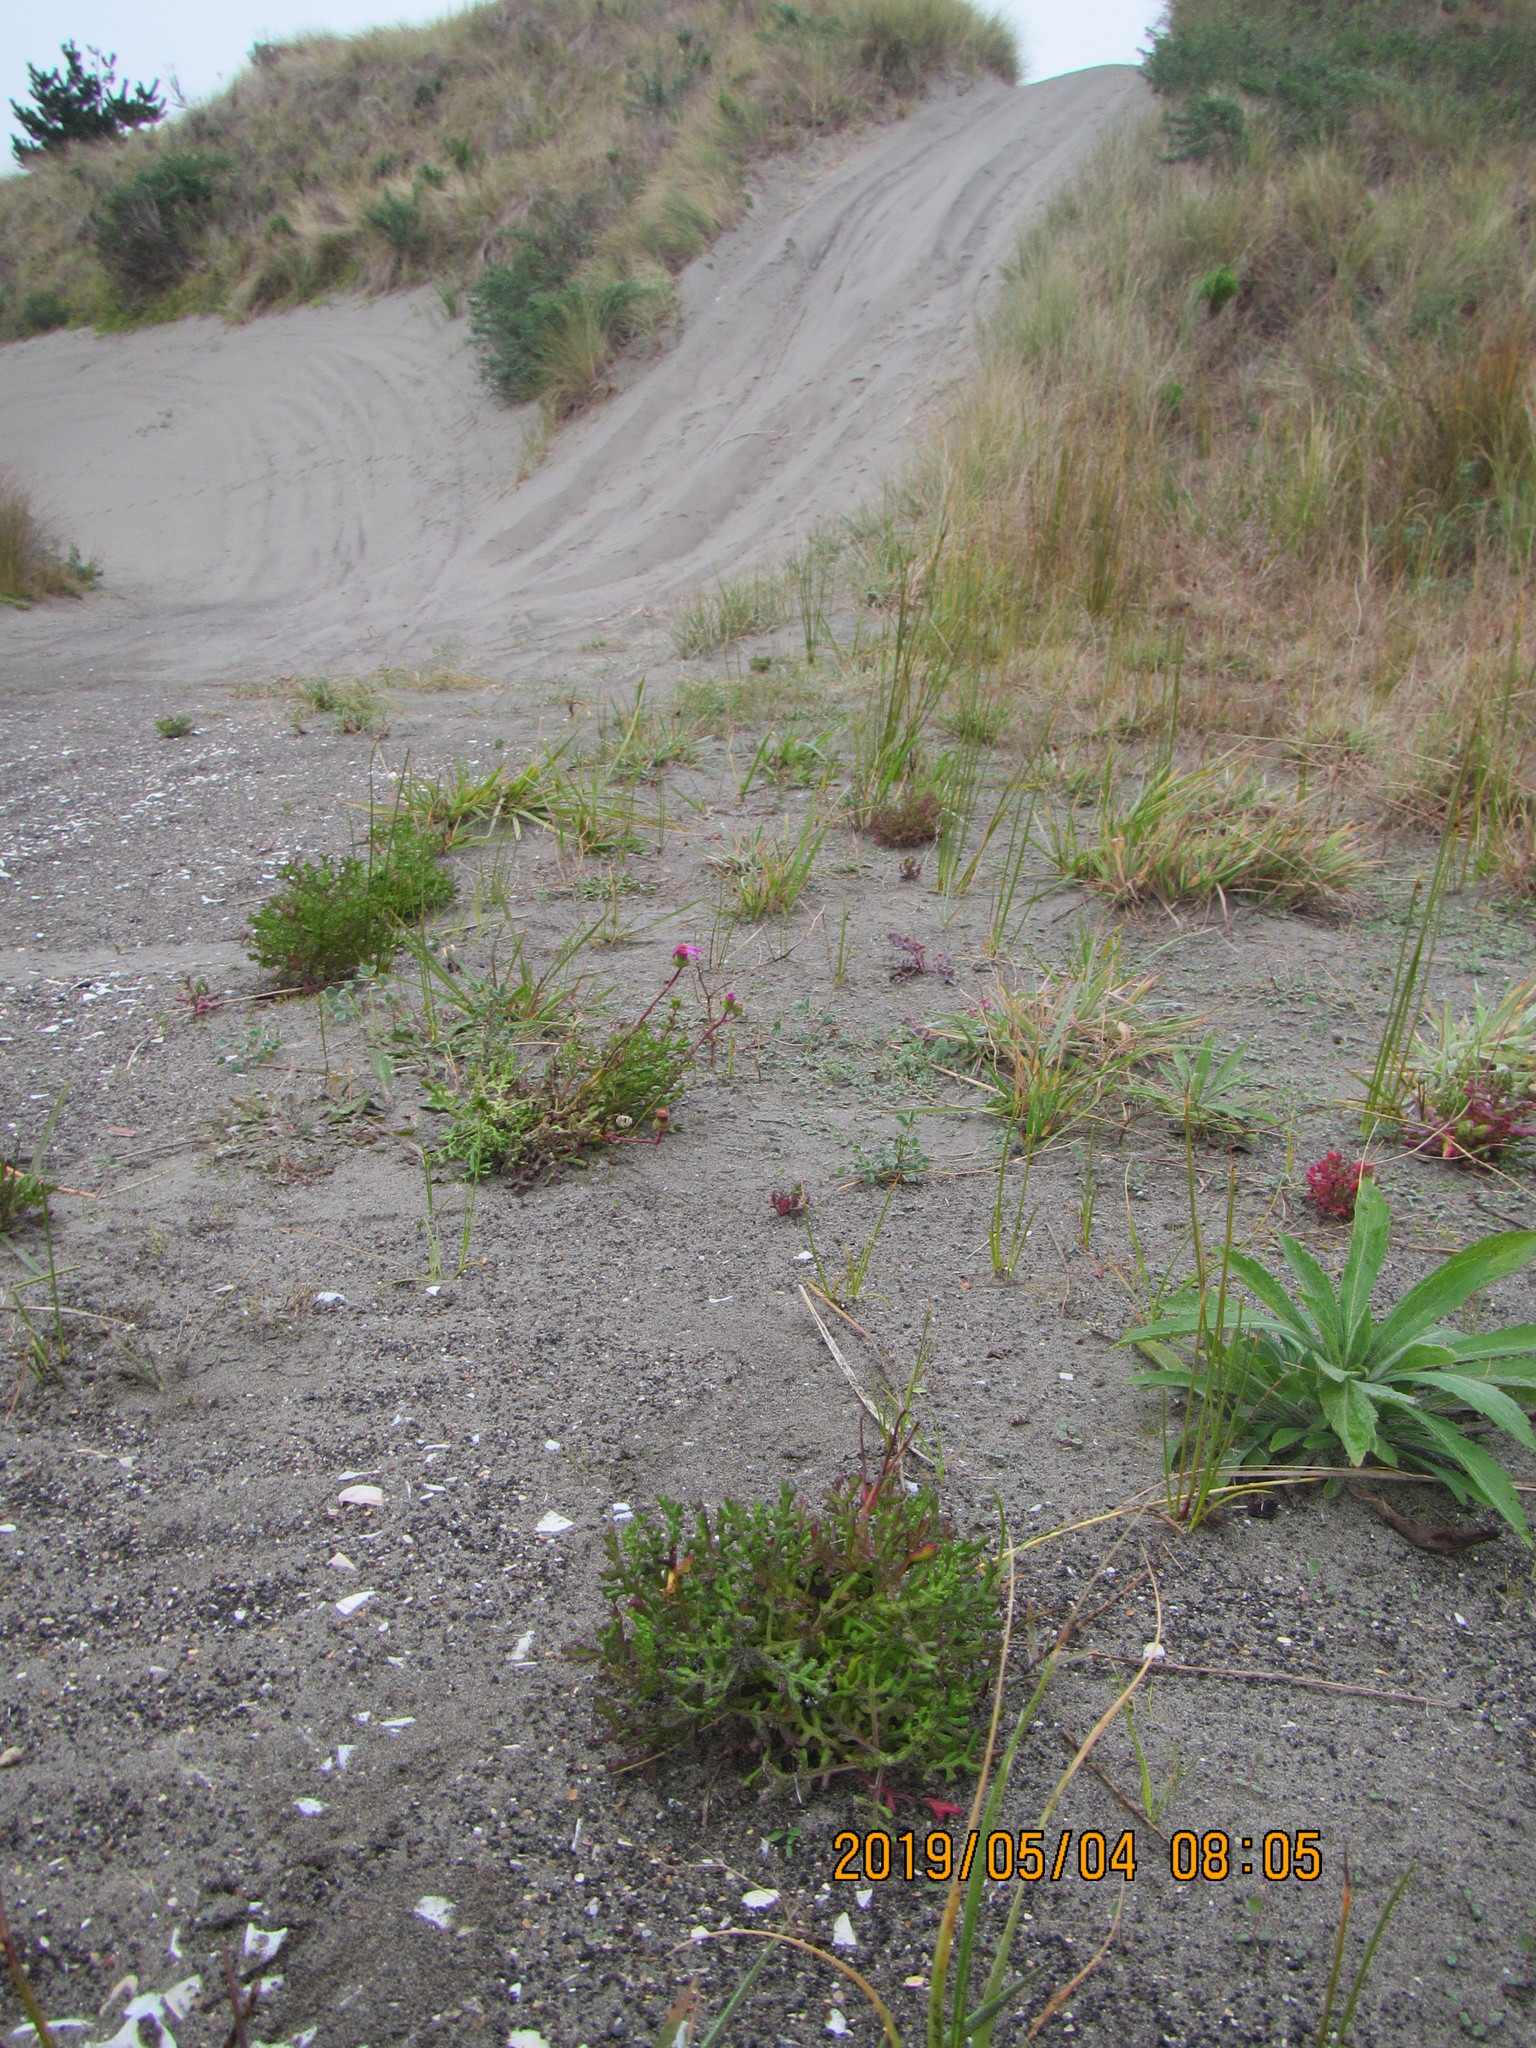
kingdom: Plantae
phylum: Tracheophyta
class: Magnoliopsida
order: Asterales
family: Asteraceae
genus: Senecio
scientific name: Senecio elegans
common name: Purple groundsel
